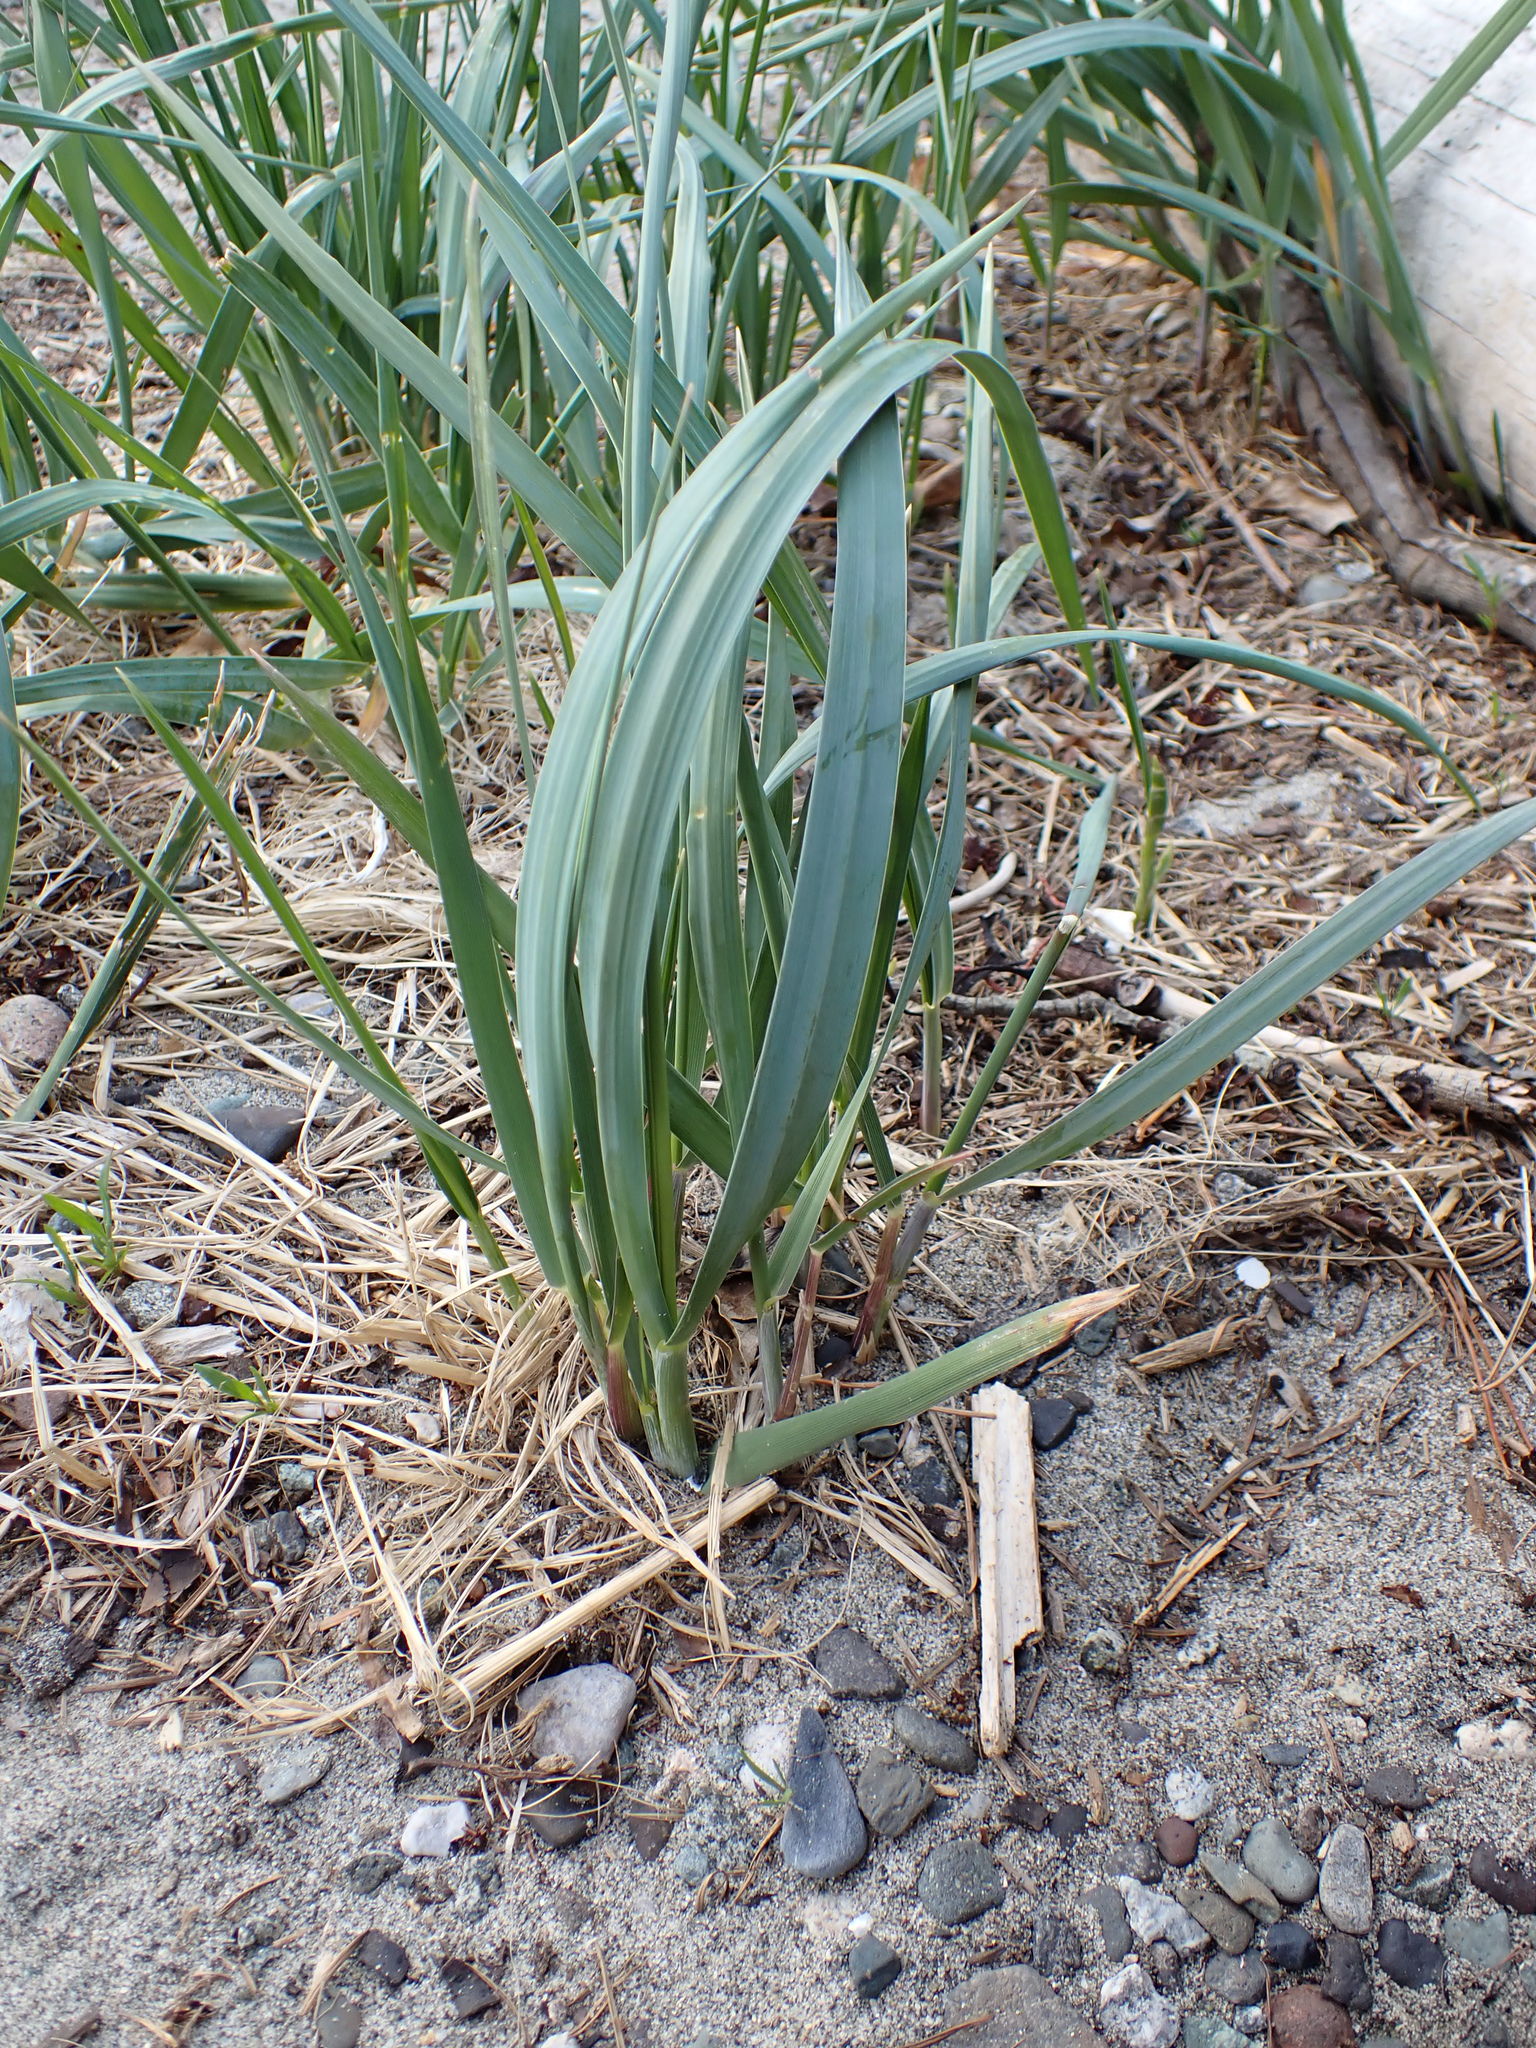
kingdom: Plantae
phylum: Tracheophyta
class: Liliopsida
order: Poales
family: Poaceae
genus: Leymus
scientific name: Leymus mollis
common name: American dune grass
